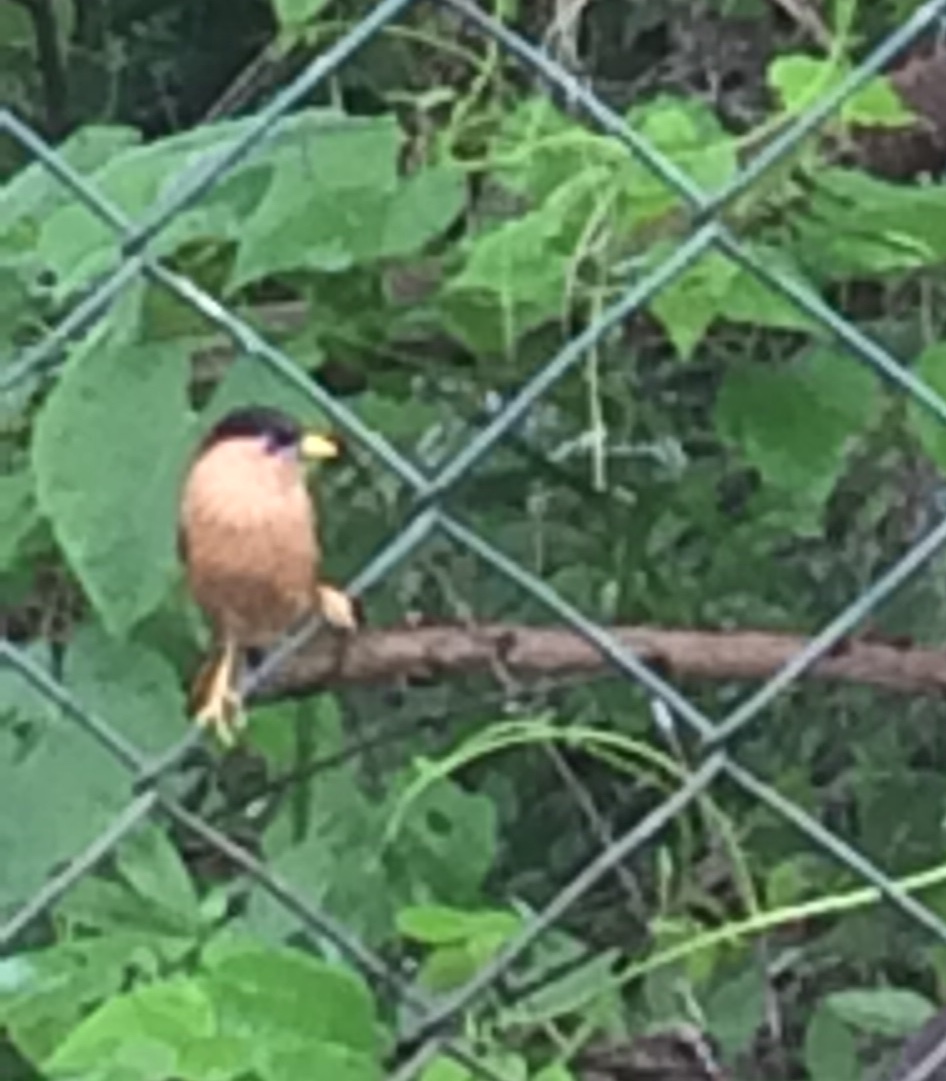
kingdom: Animalia
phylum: Chordata
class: Aves
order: Passeriformes
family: Sturnidae
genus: Sturnia
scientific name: Sturnia pagodarum
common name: Brahminy starling
